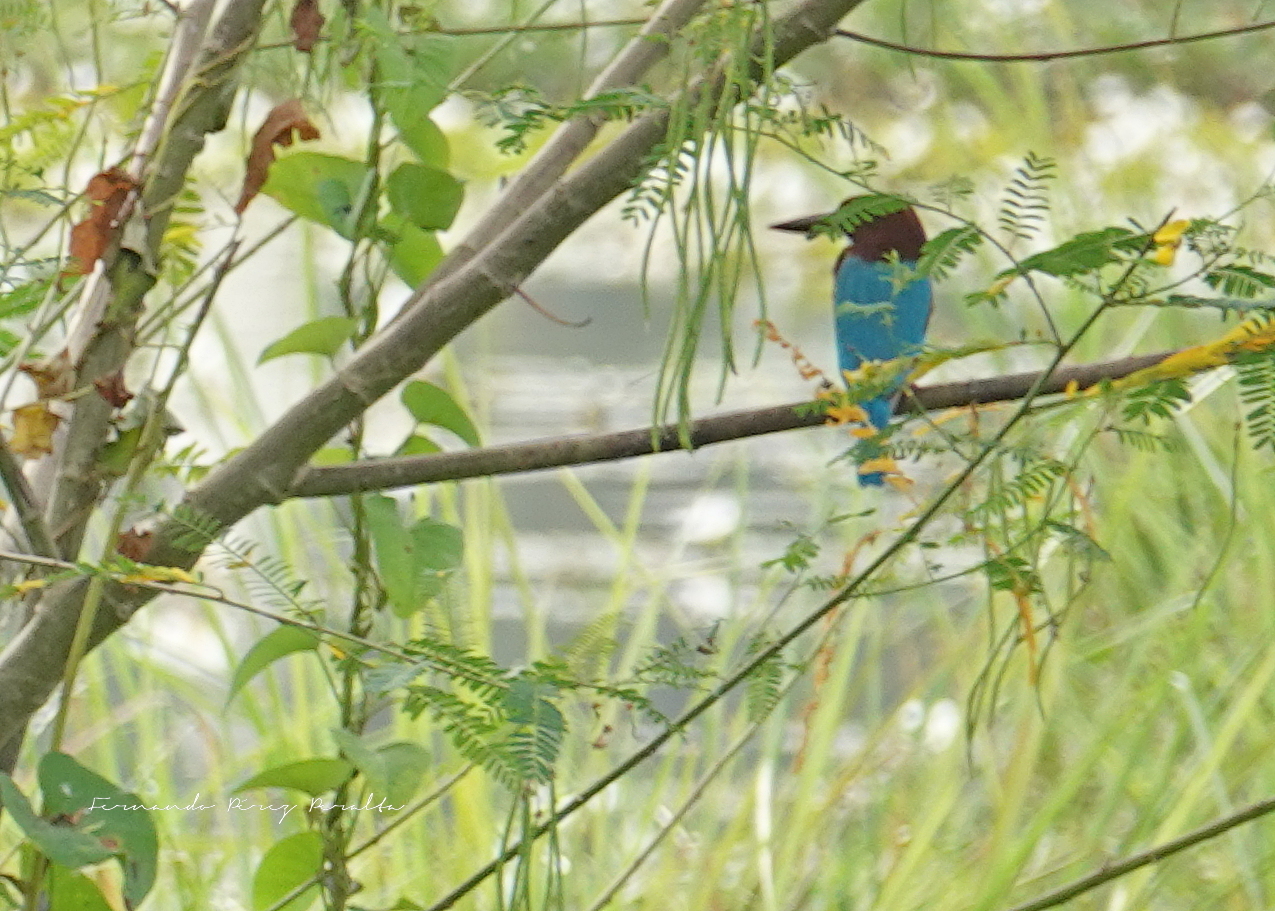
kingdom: Animalia
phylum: Chordata
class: Aves
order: Coraciiformes
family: Alcedinidae
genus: Halcyon
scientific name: Halcyon smyrnensis
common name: White-throated kingfisher
